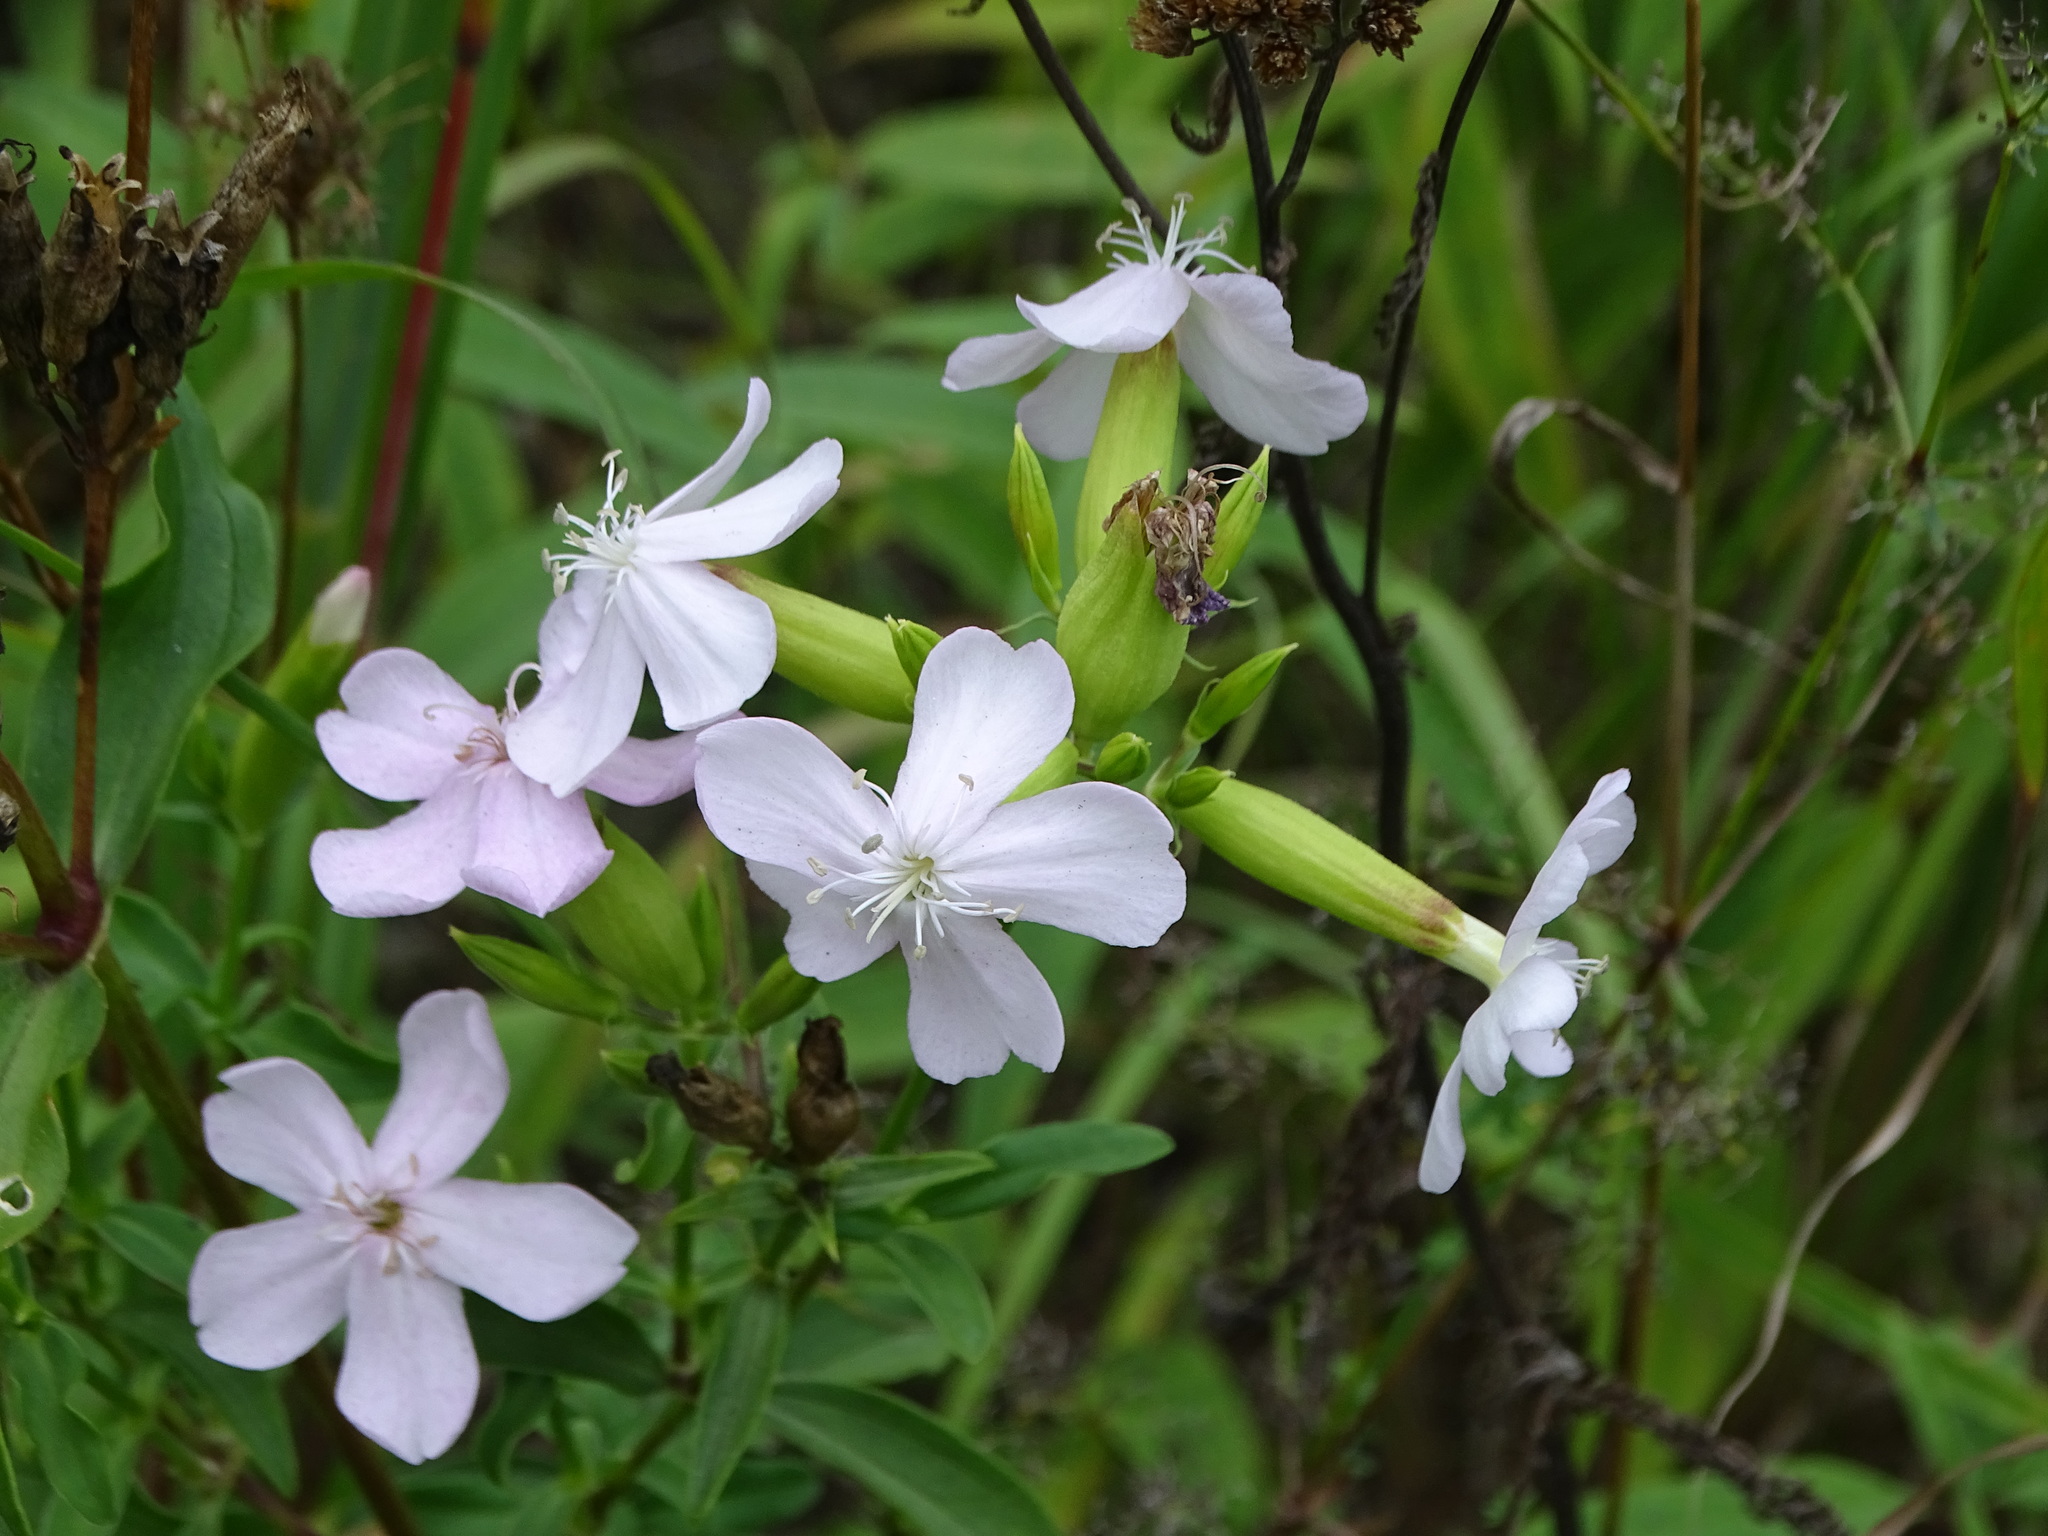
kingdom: Plantae
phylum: Tracheophyta
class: Magnoliopsida
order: Caryophyllales
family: Caryophyllaceae
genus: Saponaria
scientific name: Saponaria officinalis
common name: Soapwort
